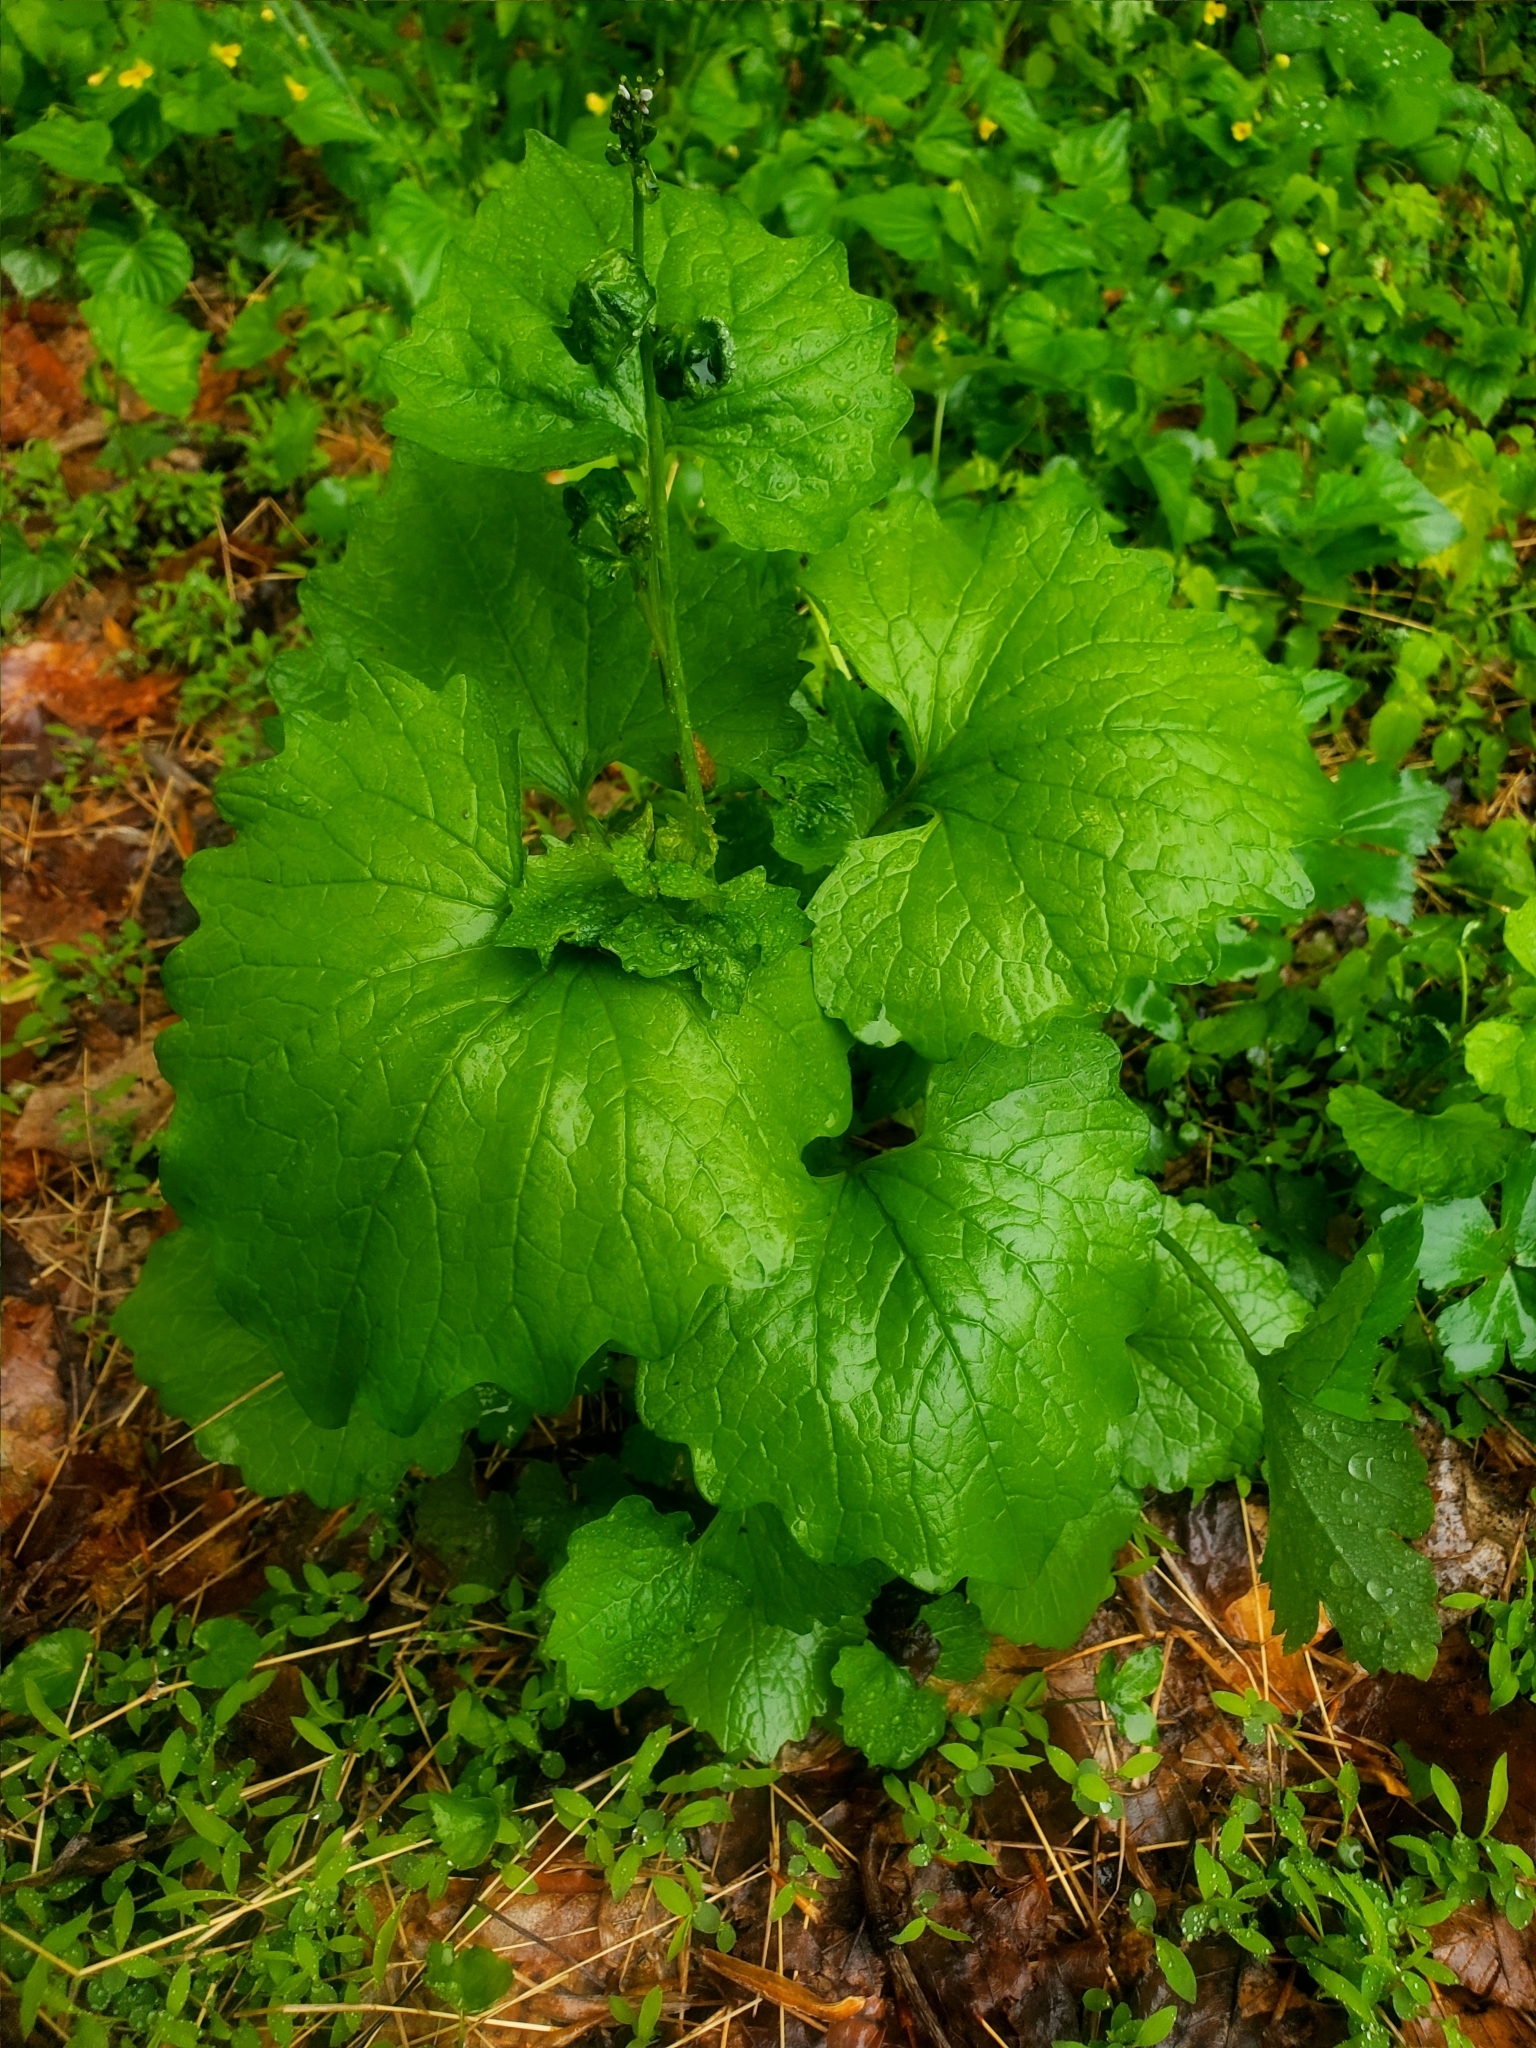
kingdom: Plantae
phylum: Tracheophyta
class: Magnoliopsida
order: Brassicales
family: Brassicaceae
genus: Alliaria
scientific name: Alliaria petiolata
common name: Garlic mustard
